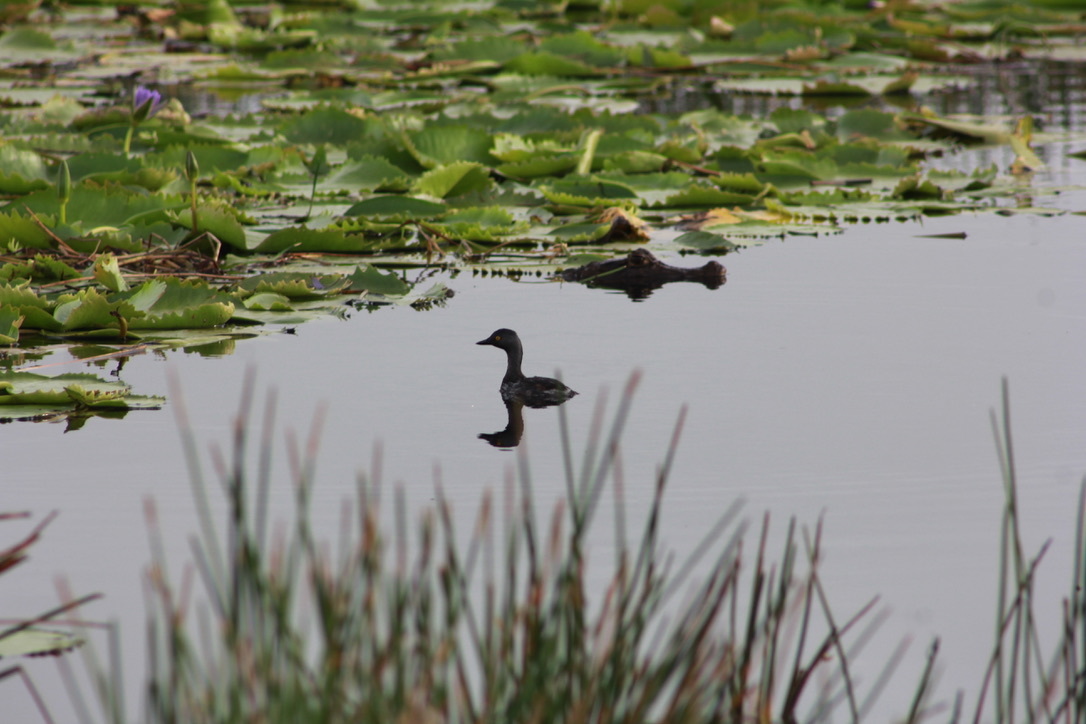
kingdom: Animalia
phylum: Chordata
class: Aves
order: Podicipediformes
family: Podicipedidae
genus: Tachybaptus
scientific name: Tachybaptus dominicus
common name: Least grebe
